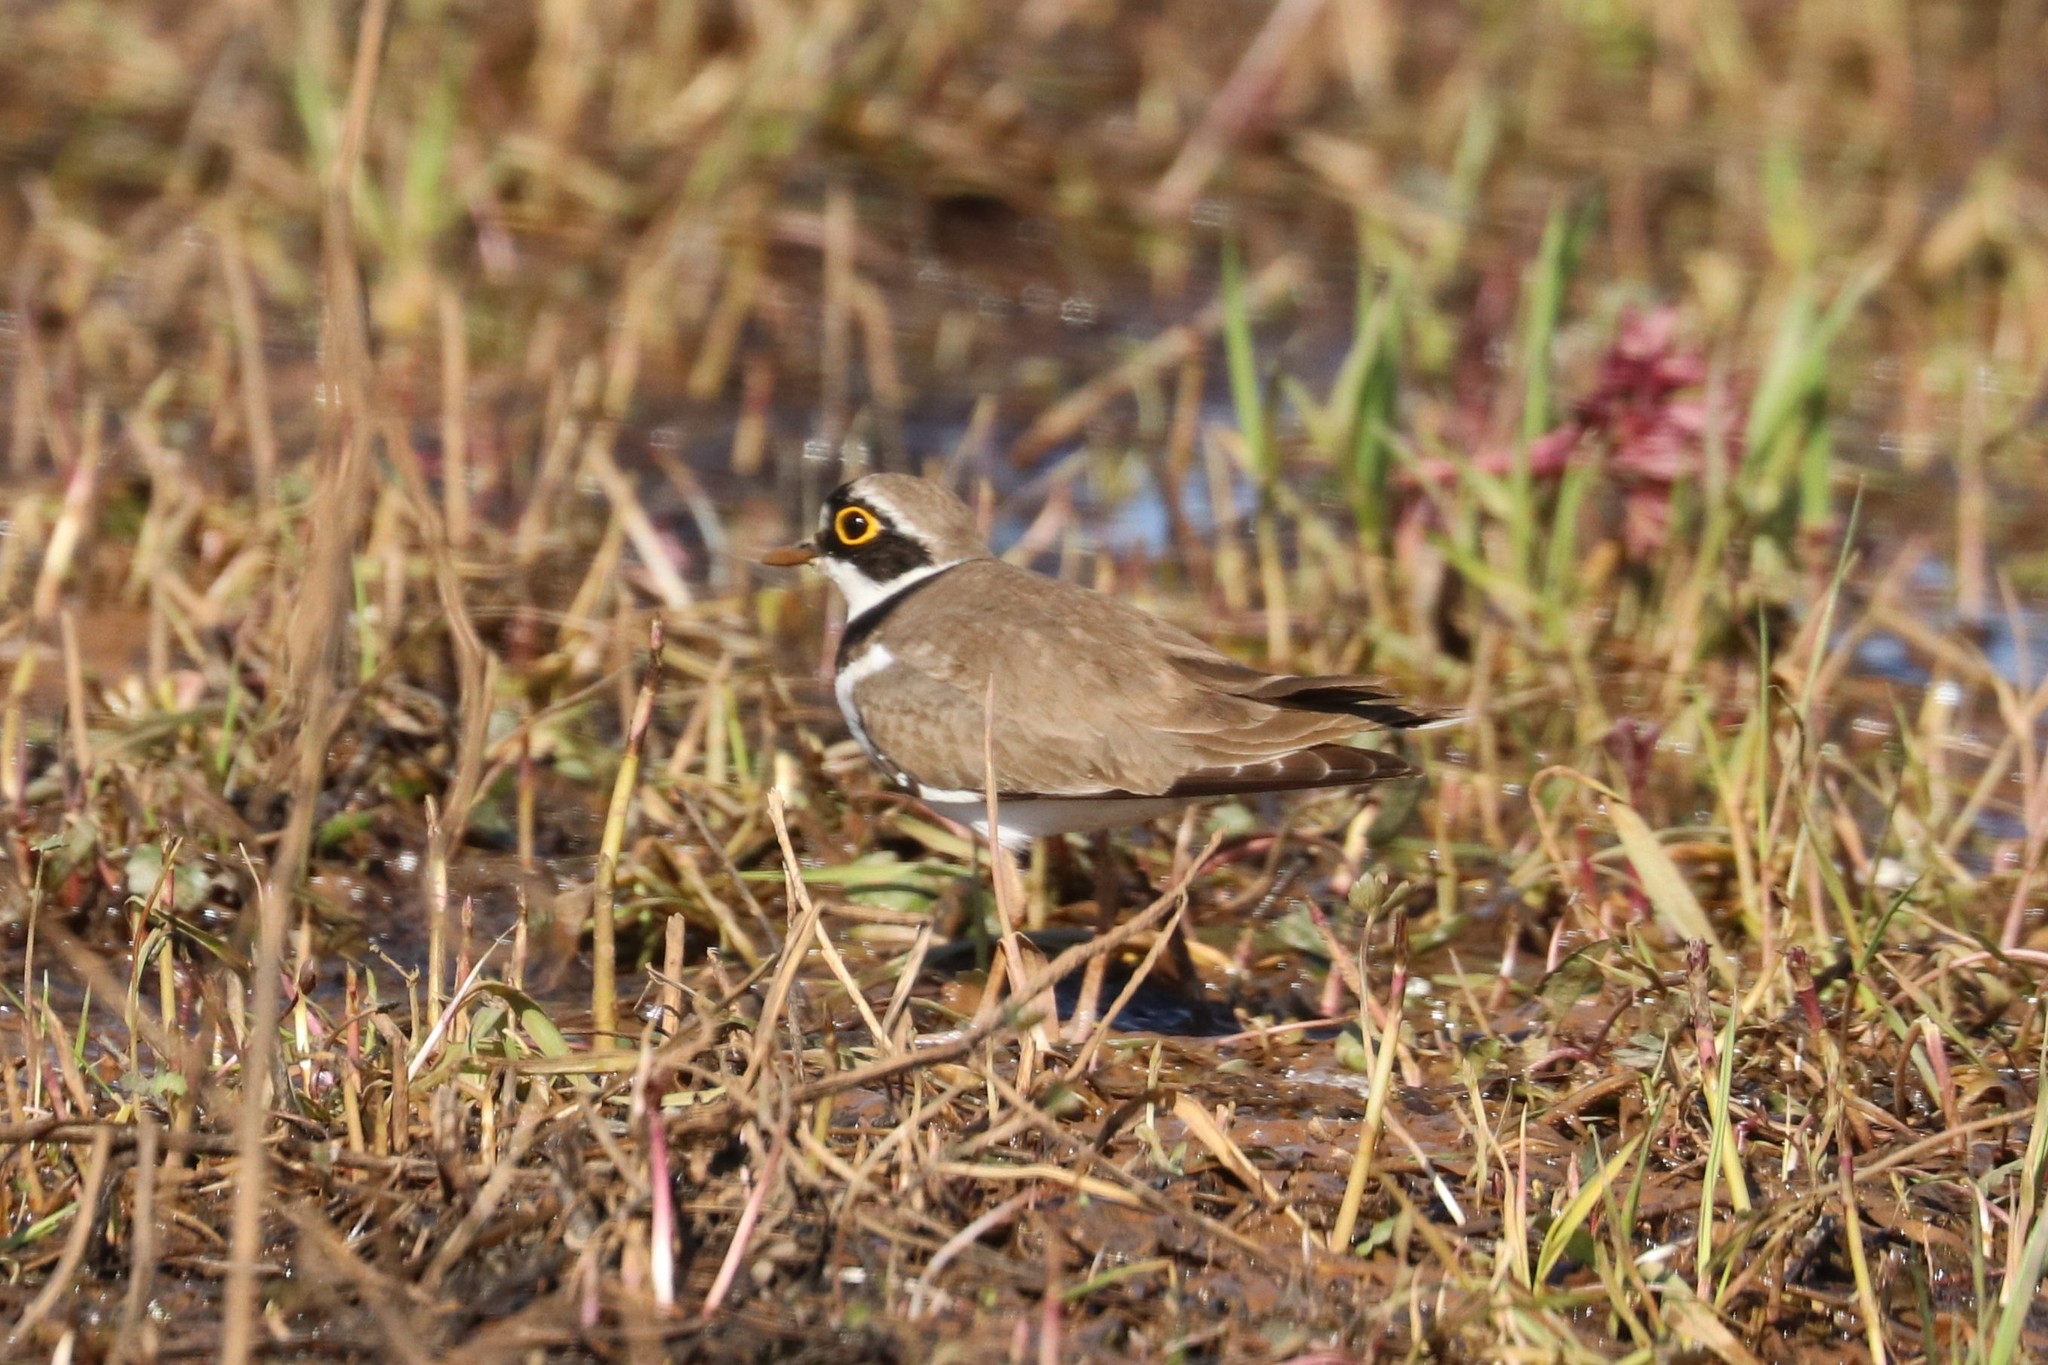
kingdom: Animalia
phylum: Chordata
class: Aves
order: Charadriiformes
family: Charadriidae
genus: Charadrius
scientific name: Charadrius dubius
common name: Little ringed plover
